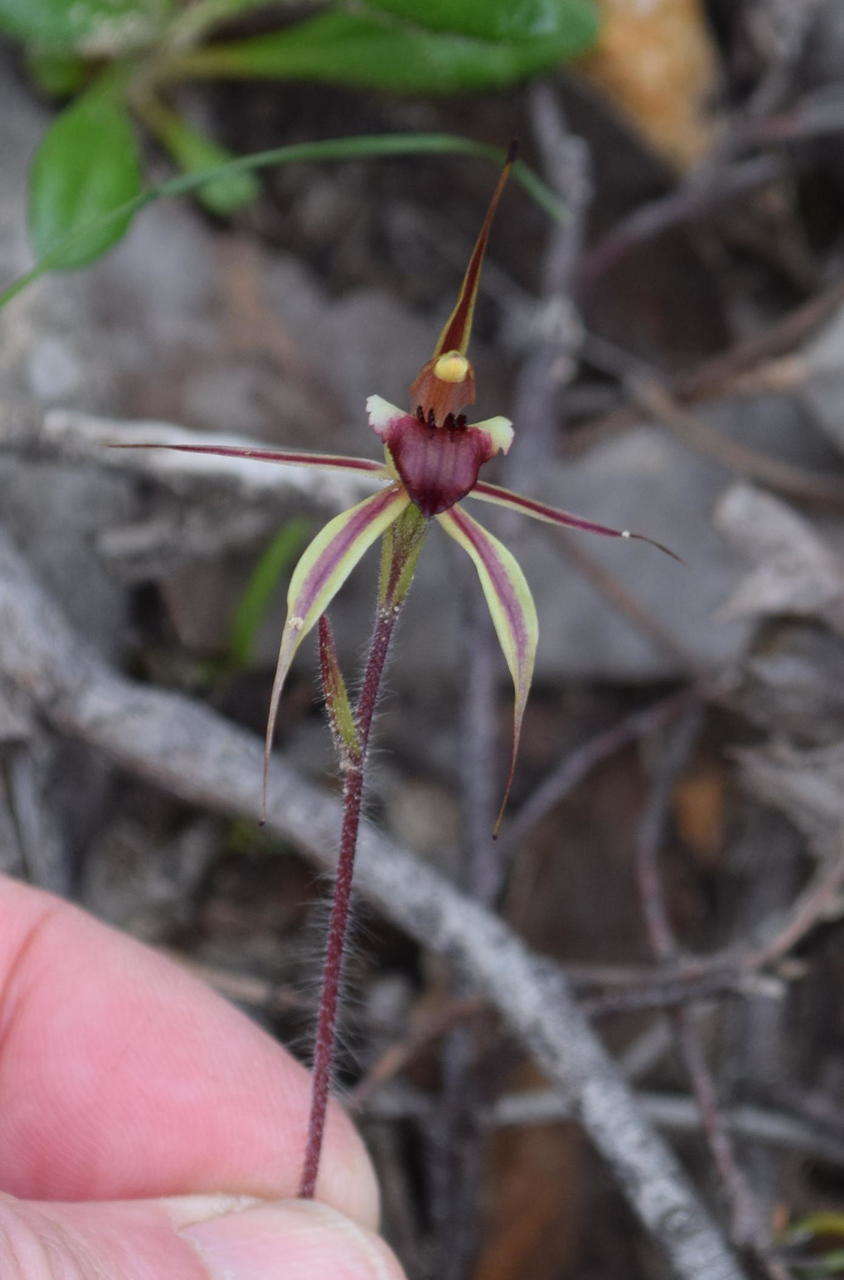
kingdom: Plantae
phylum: Tracheophyta
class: Liliopsida
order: Asparagales
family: Orchidaceae
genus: Caladenia
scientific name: Caladenia clavigera
